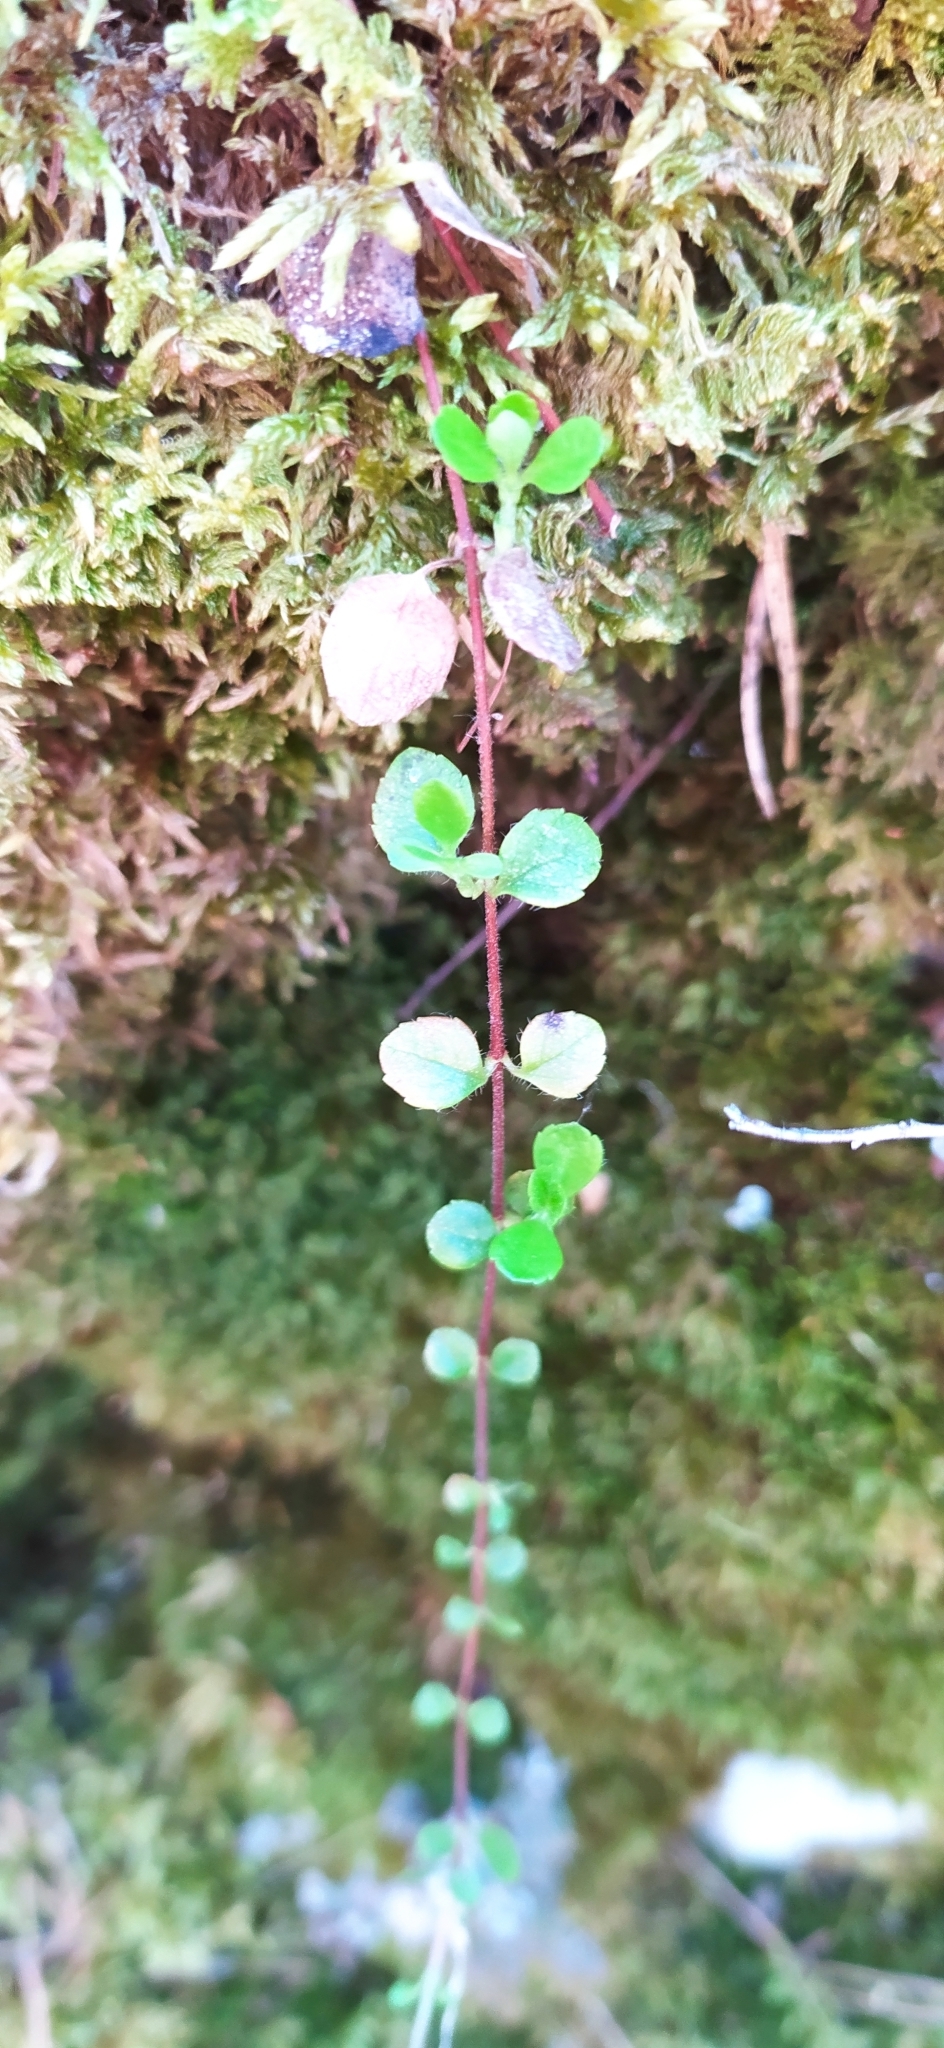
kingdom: Plantae
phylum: Tracheophyta
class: Magnoliopsida
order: Dipsacales
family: Caprifoliaceae
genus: Linnaea
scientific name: Linnaea borealis
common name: Twinflower
